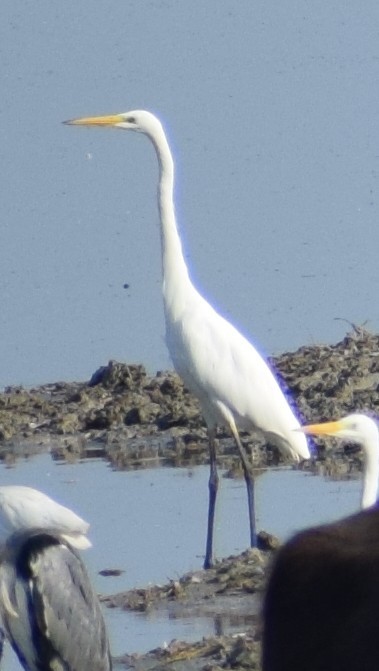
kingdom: Animalia
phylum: Chordata
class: Aves
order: Pelecaniformes
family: Ardeidae
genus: Ardea
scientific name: Ardea alba
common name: Great egret
